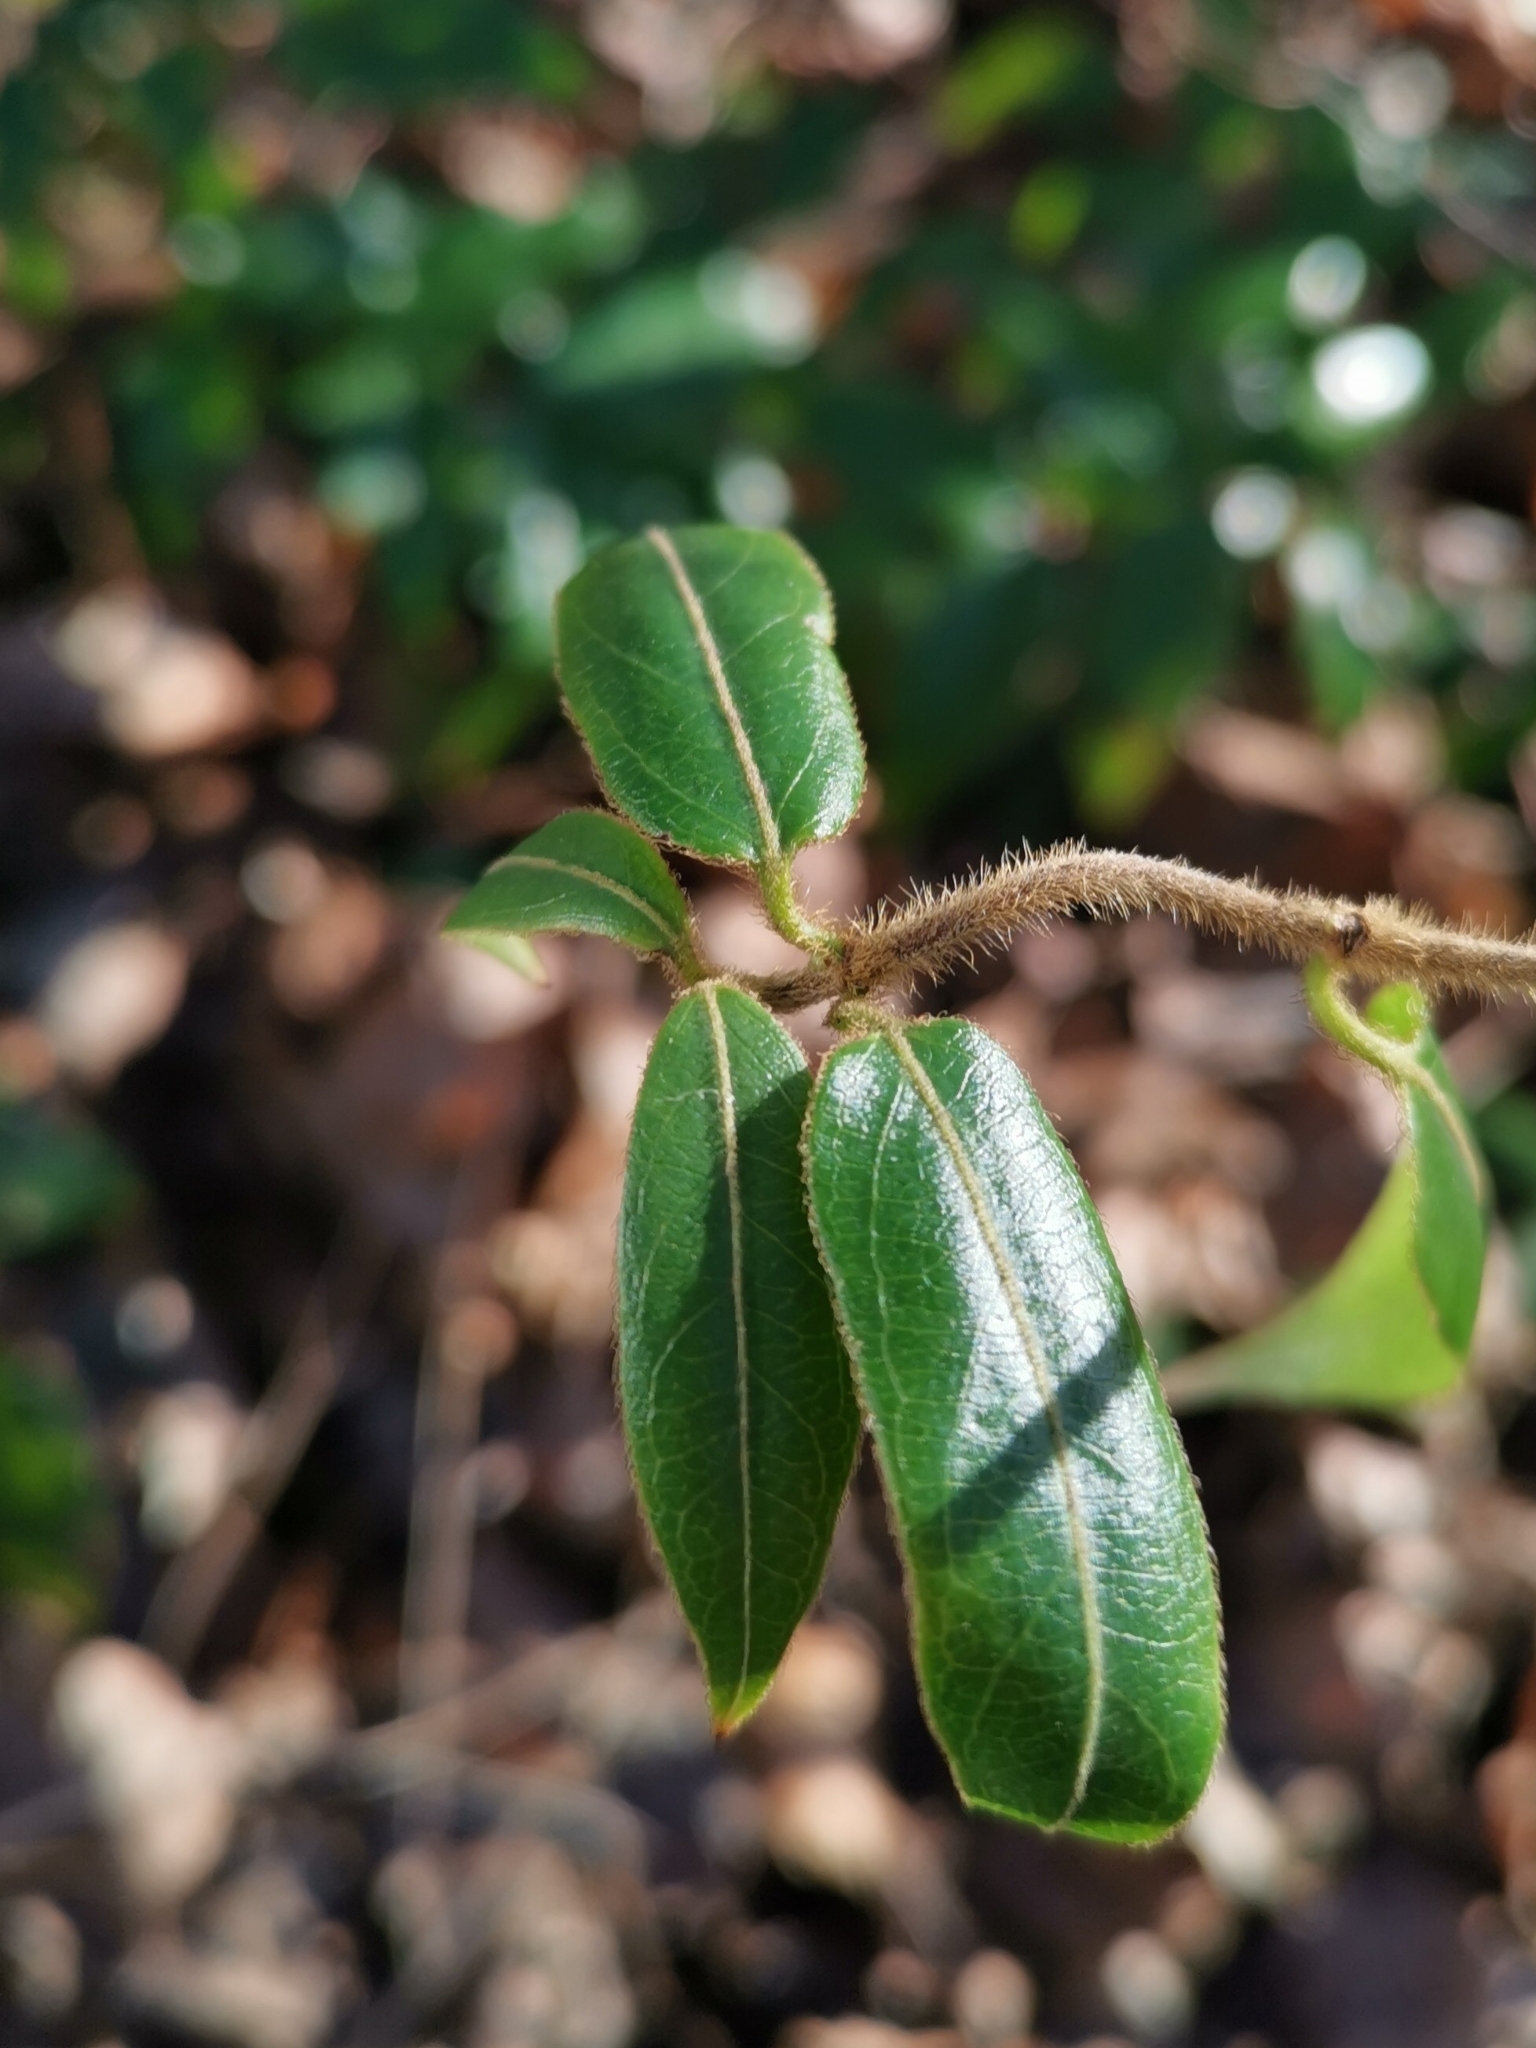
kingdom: Plantae
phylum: Tracheophyta
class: Magnoliopsida
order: Dipsacales
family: Caprifoliaceae
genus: Lonicera
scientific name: Lonicera acuminata
